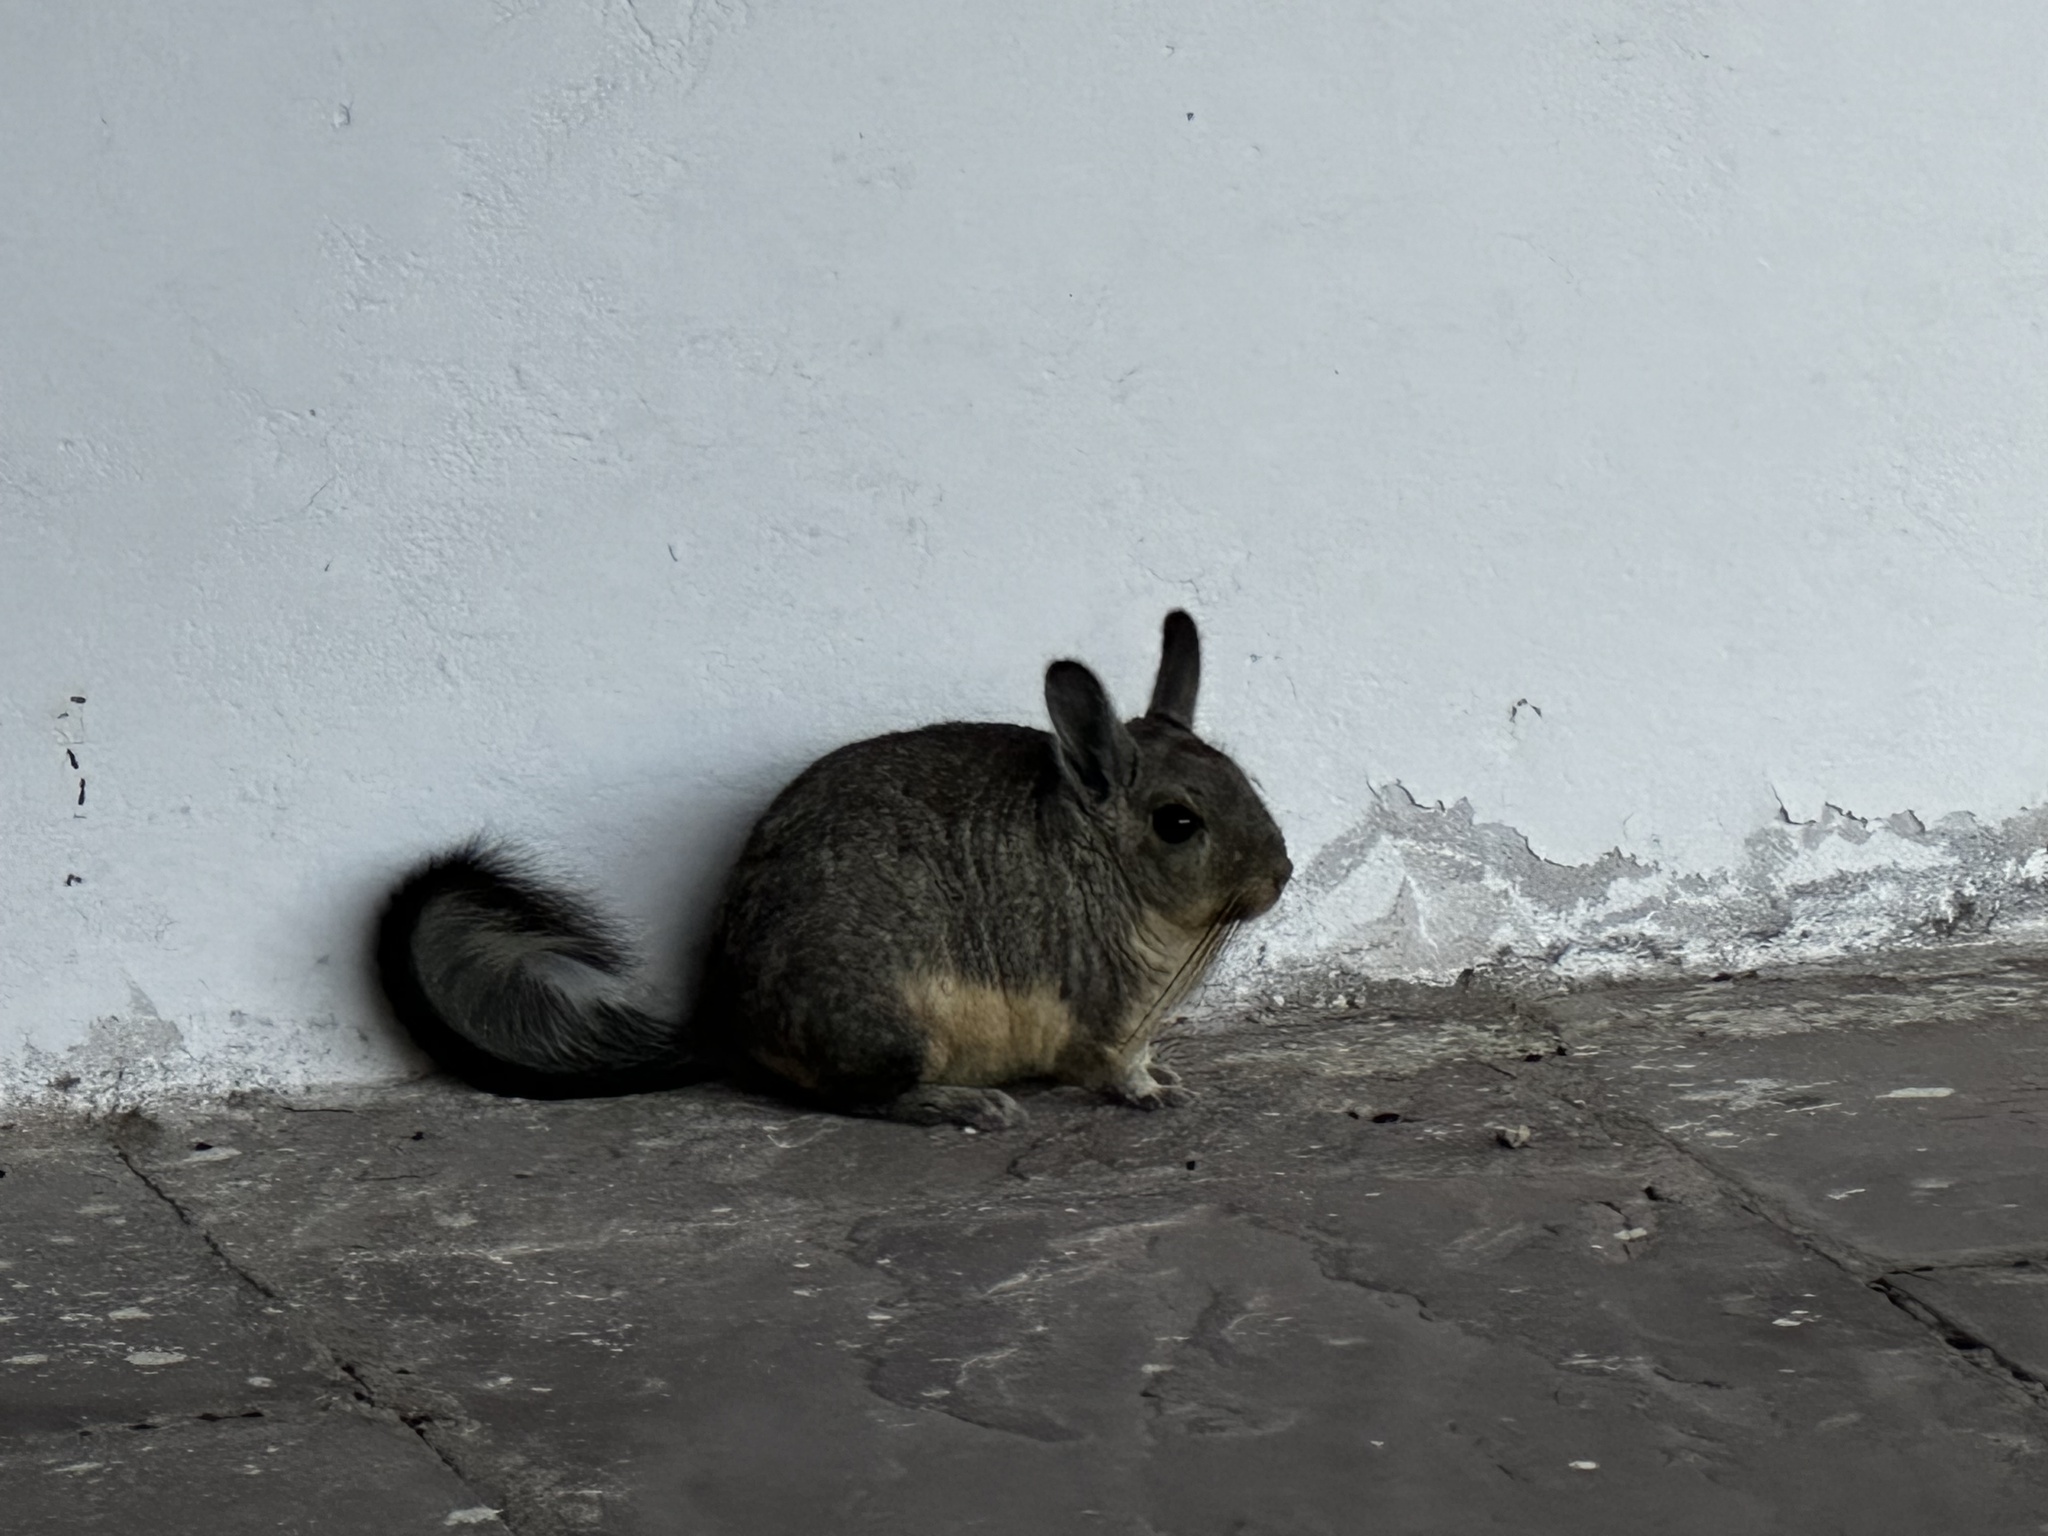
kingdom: Animalia
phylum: Chordata
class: Mammalia
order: Rodentia
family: Chinchillidae
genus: Lagidium
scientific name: Lagidium viscacia
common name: Southern viscacha
